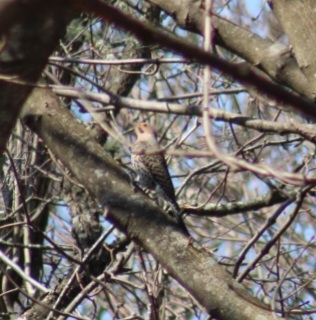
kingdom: Animalia
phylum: Chordata
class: Aves
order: Piciformes
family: Picidae
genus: Colaptes
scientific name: Colaptes auratus
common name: Northern flicker
